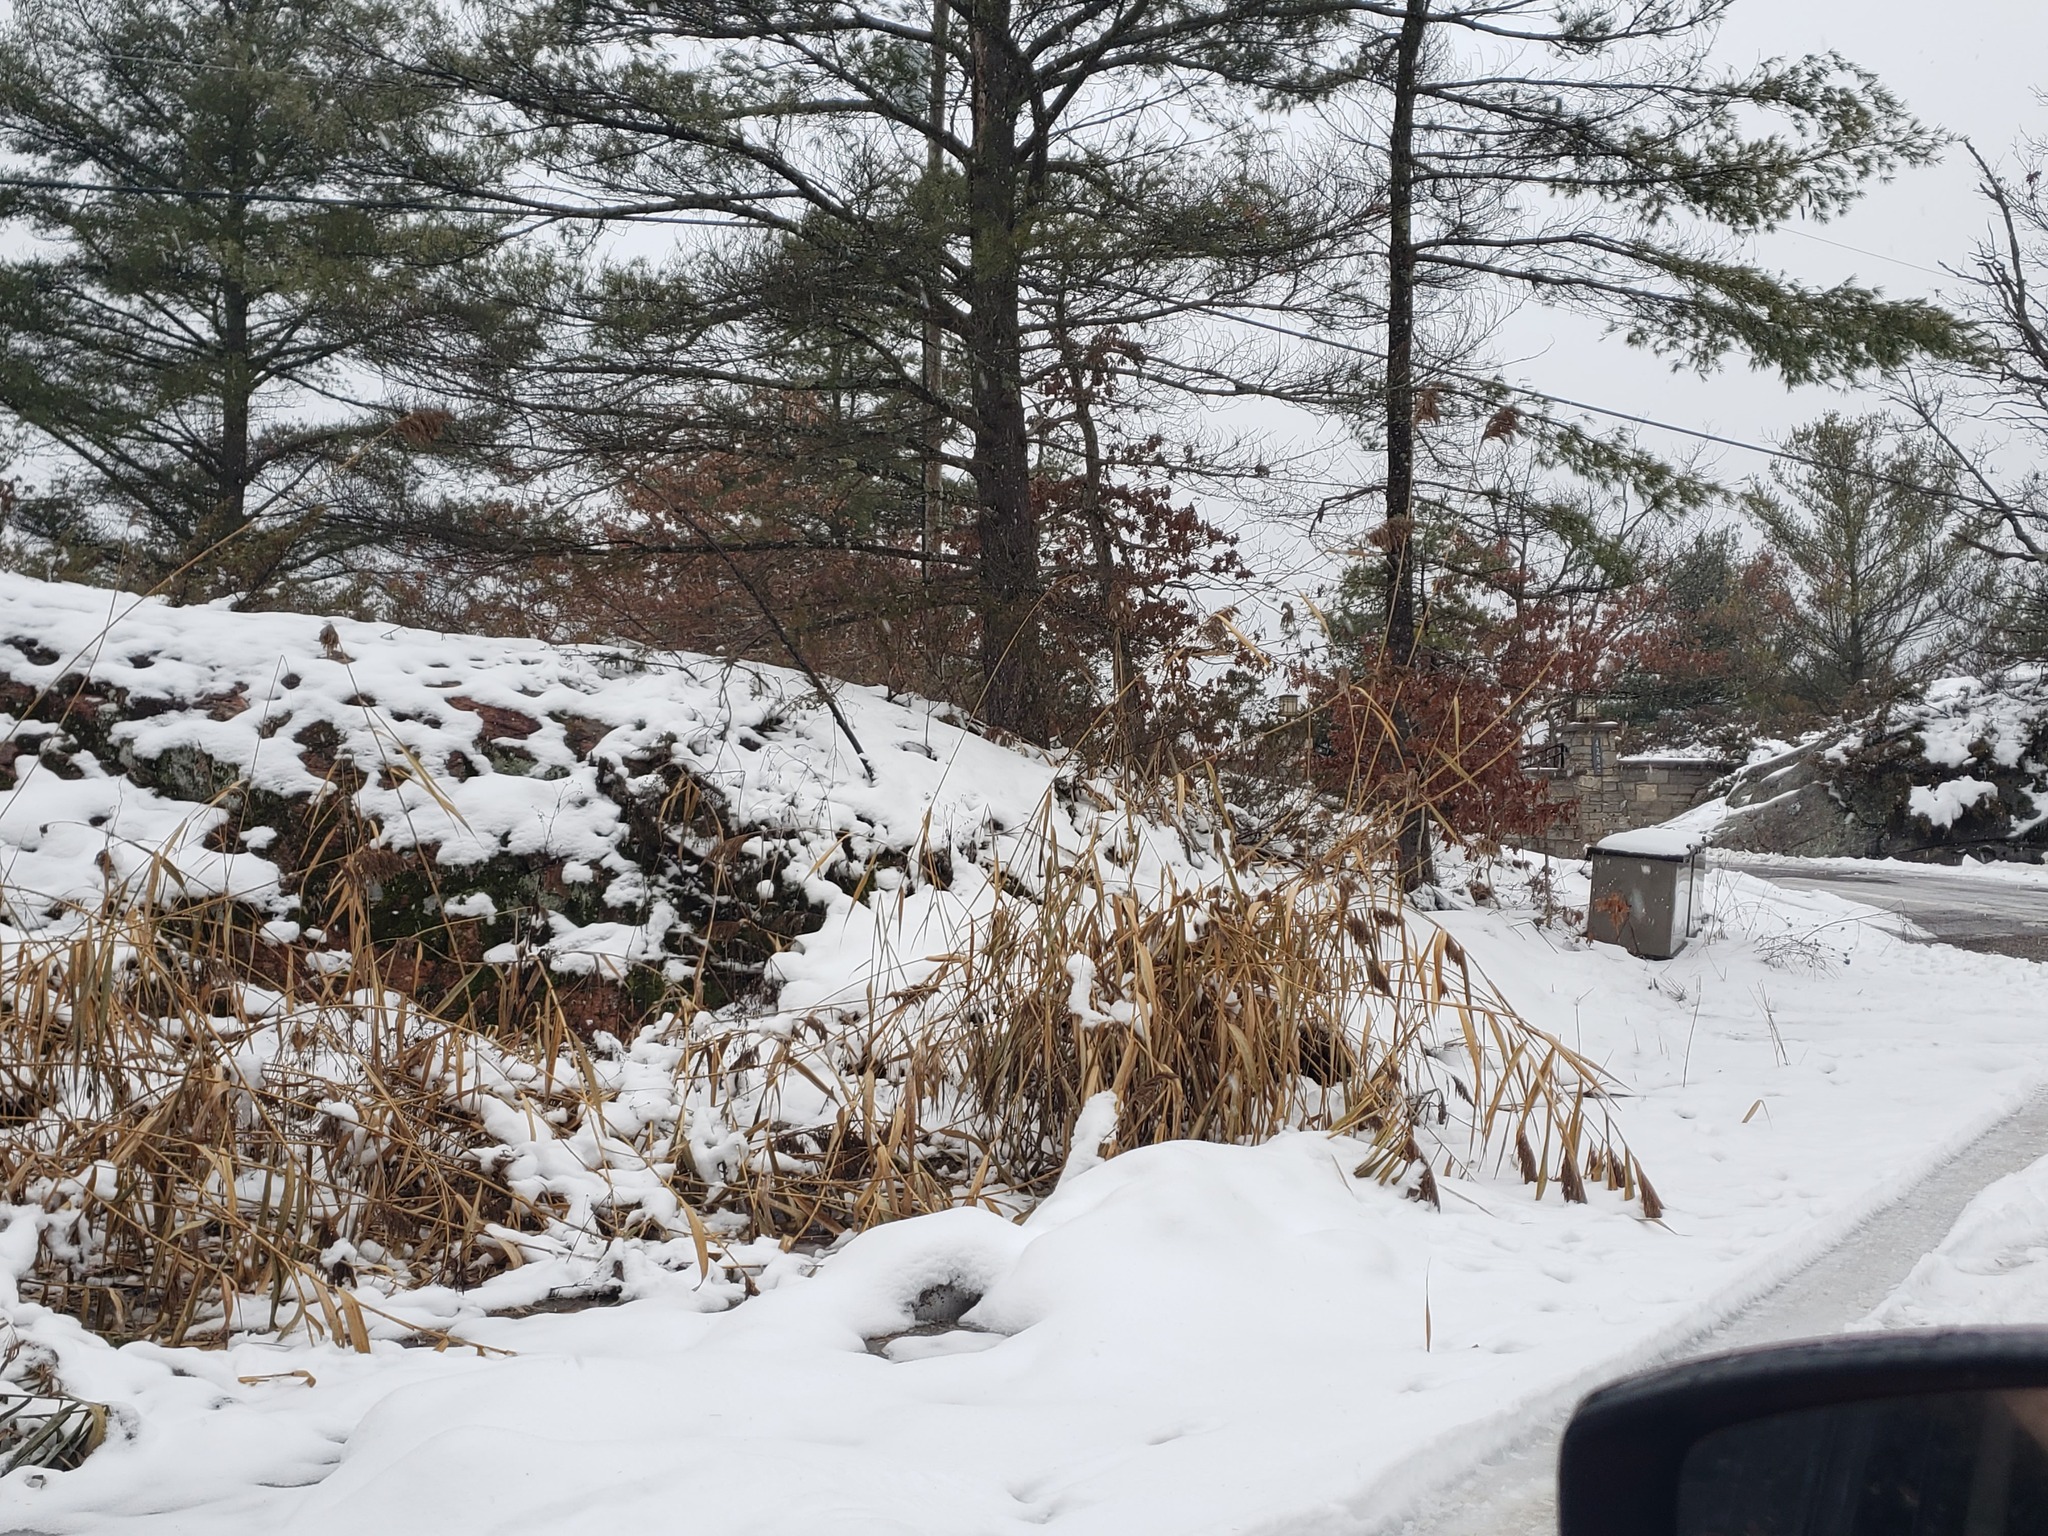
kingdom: Plantae
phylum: Tracheophyta
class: Liliopsida
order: Poales
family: Poaceae
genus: Phragmites
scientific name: Phragmites australis
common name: Common reed
